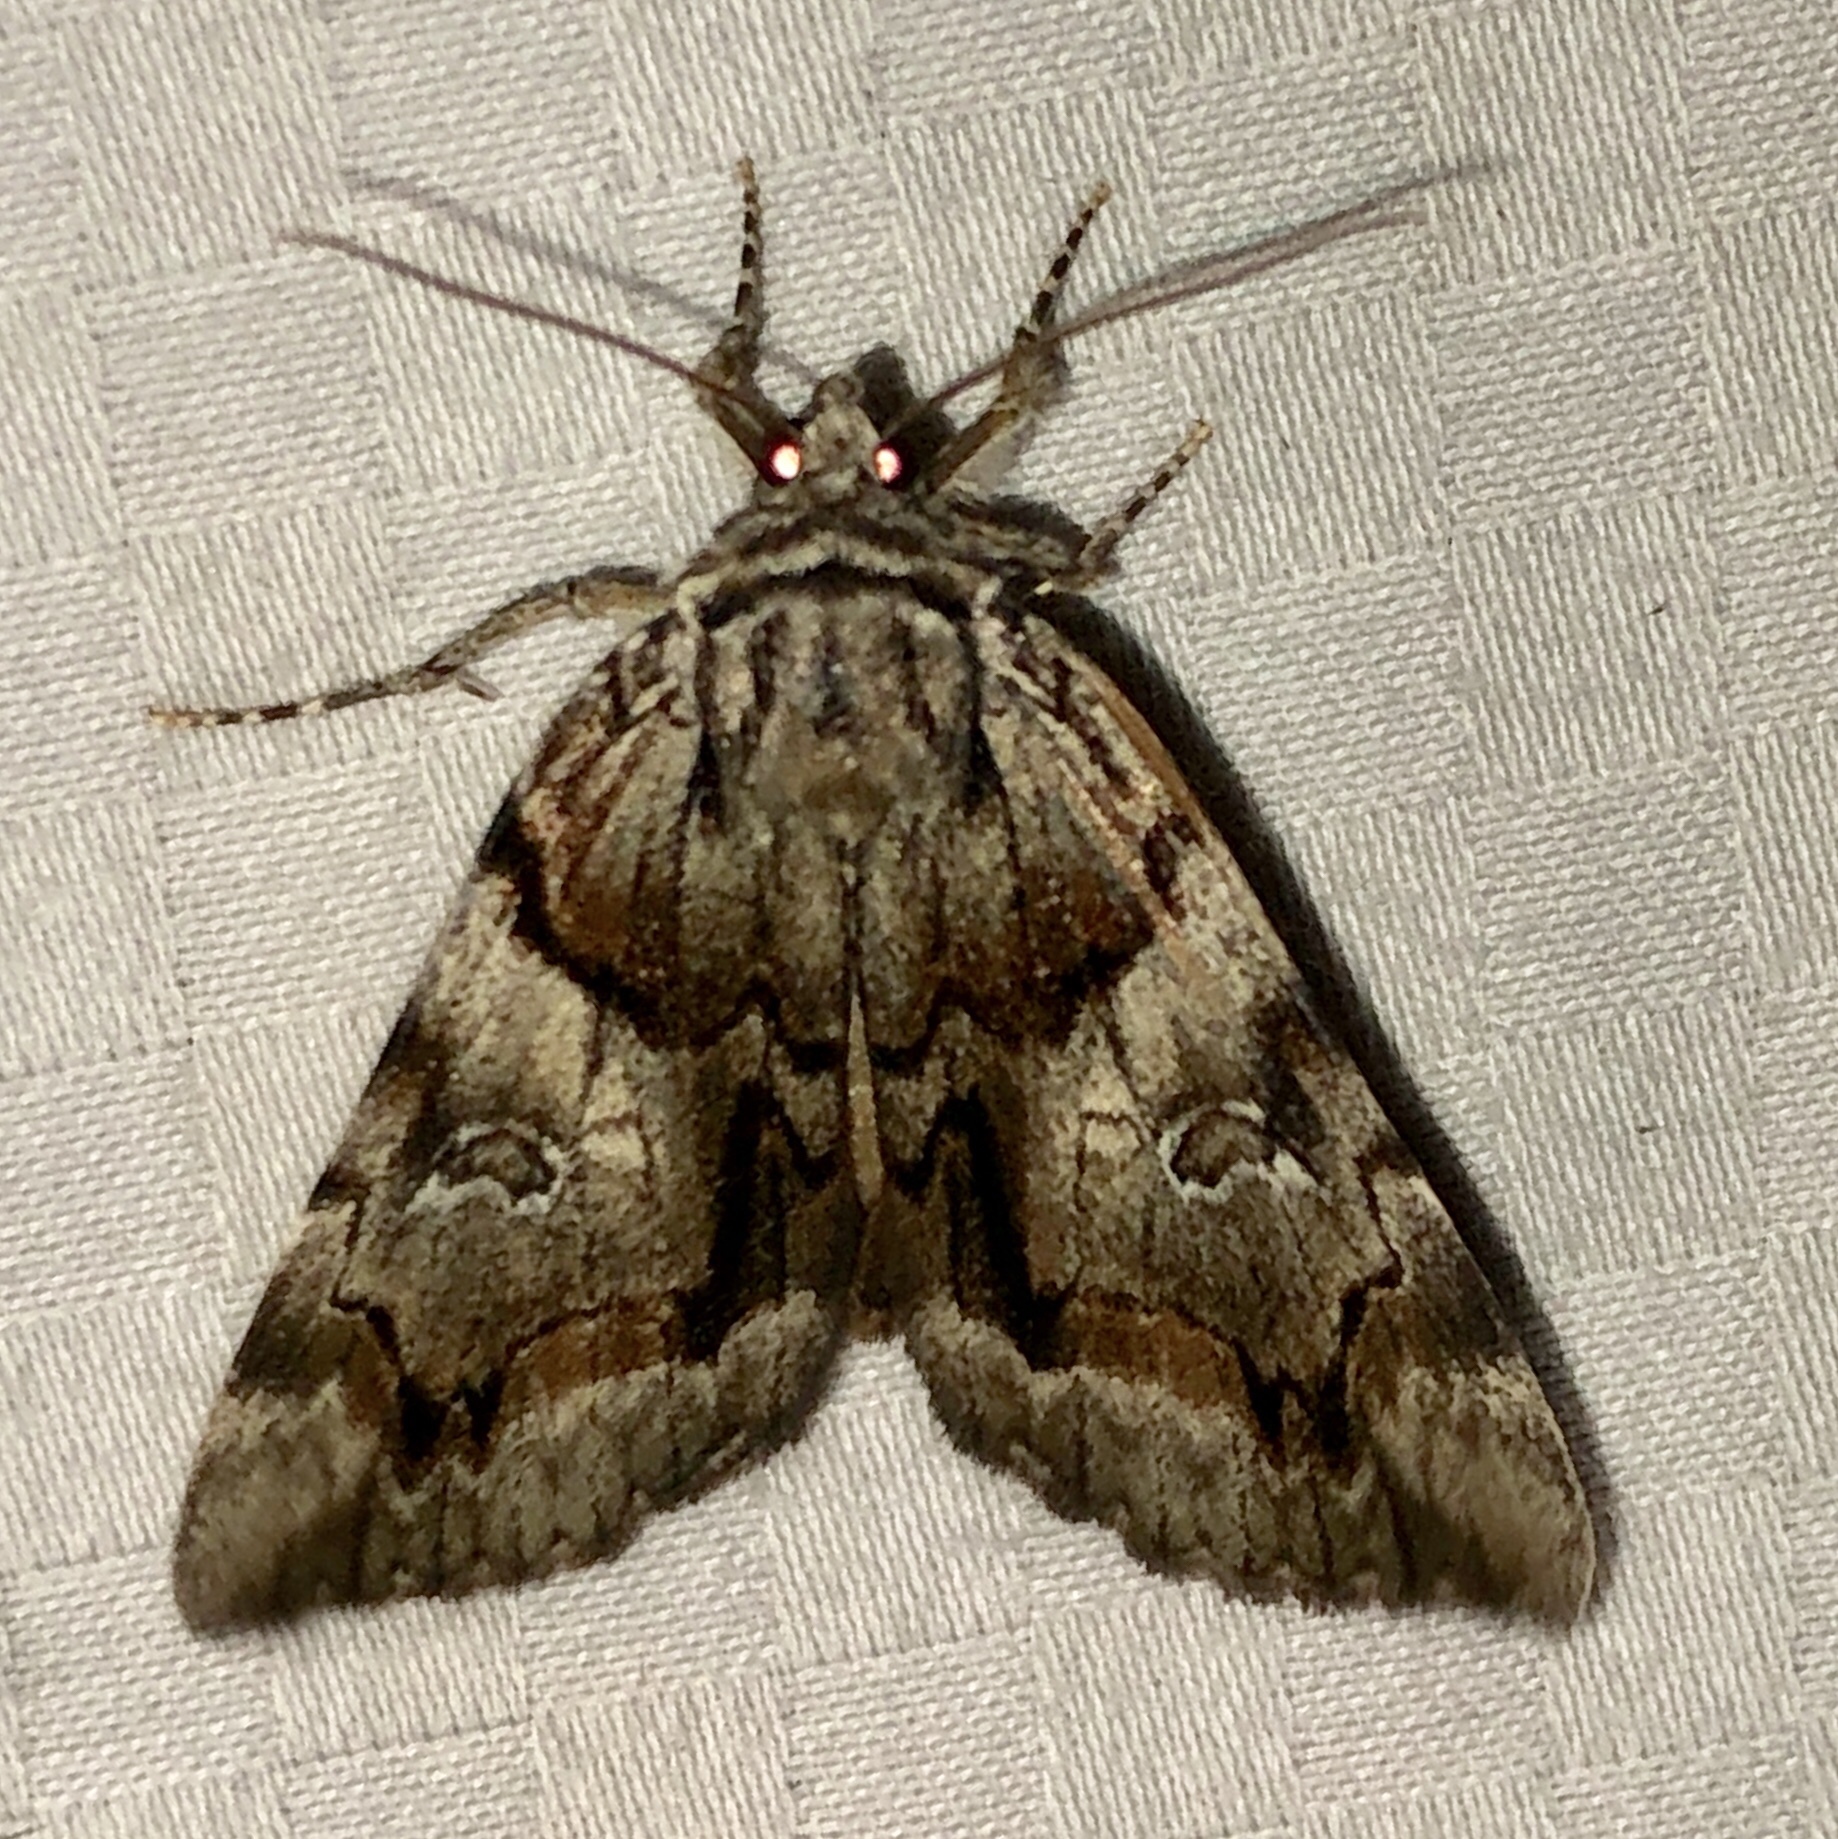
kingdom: Animalia
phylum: Arthropoda
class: Insecta
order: Lepidoptera
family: Erebidae
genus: Catocala
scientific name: Catocala blandula
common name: Charming underwing
